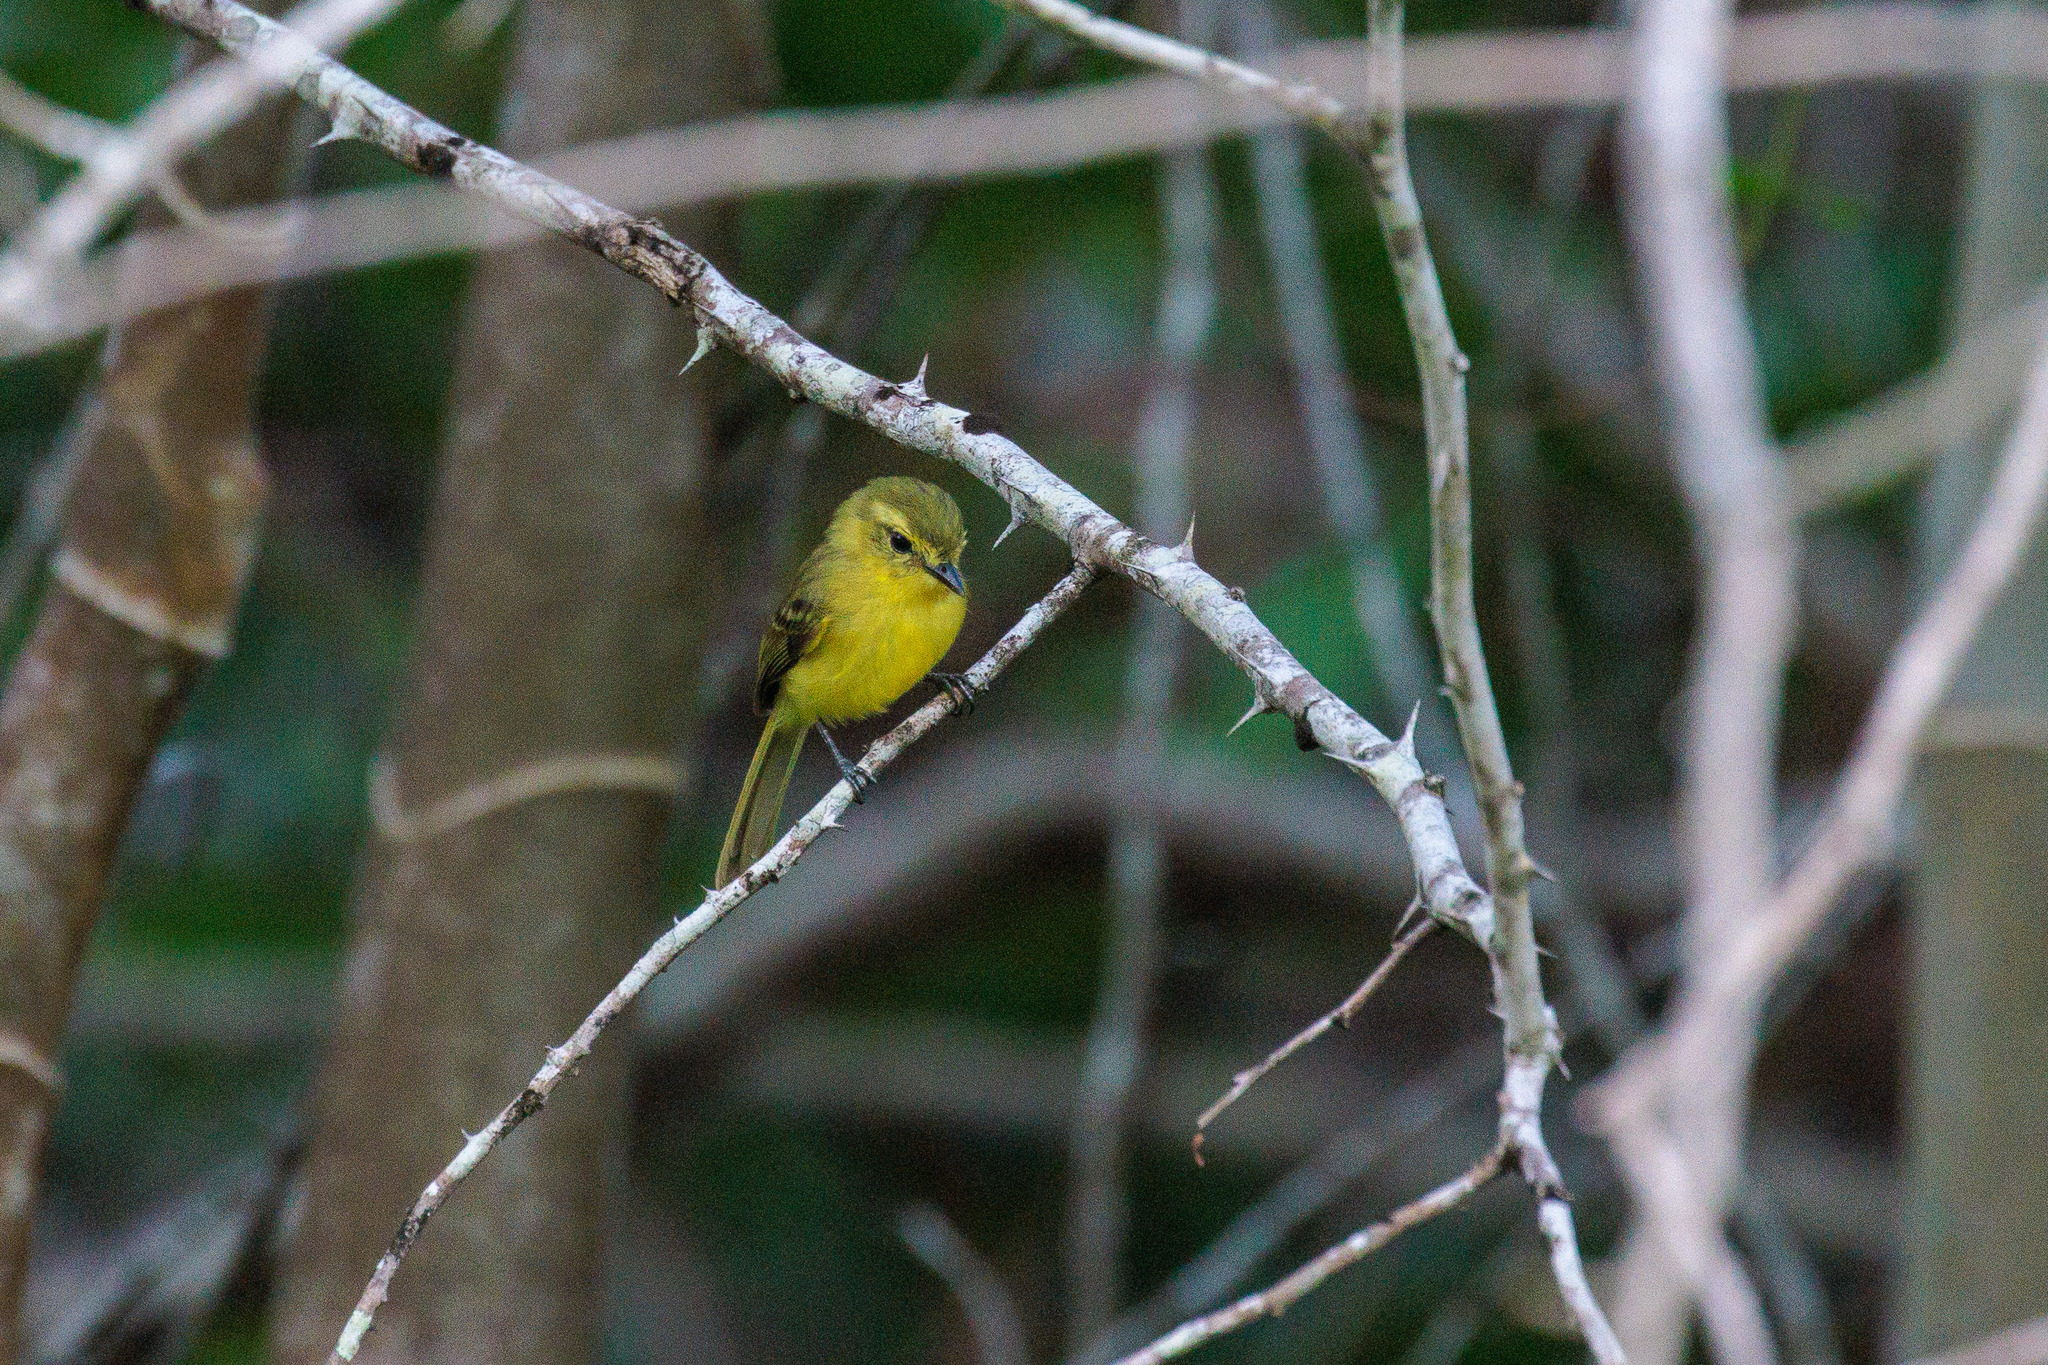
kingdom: Animalia
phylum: Chordata
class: Aves
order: Passeriformes
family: Tyrannidae
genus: Capsiempis
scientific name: Capsiempis flaveola
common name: Yellow tyrannulet
